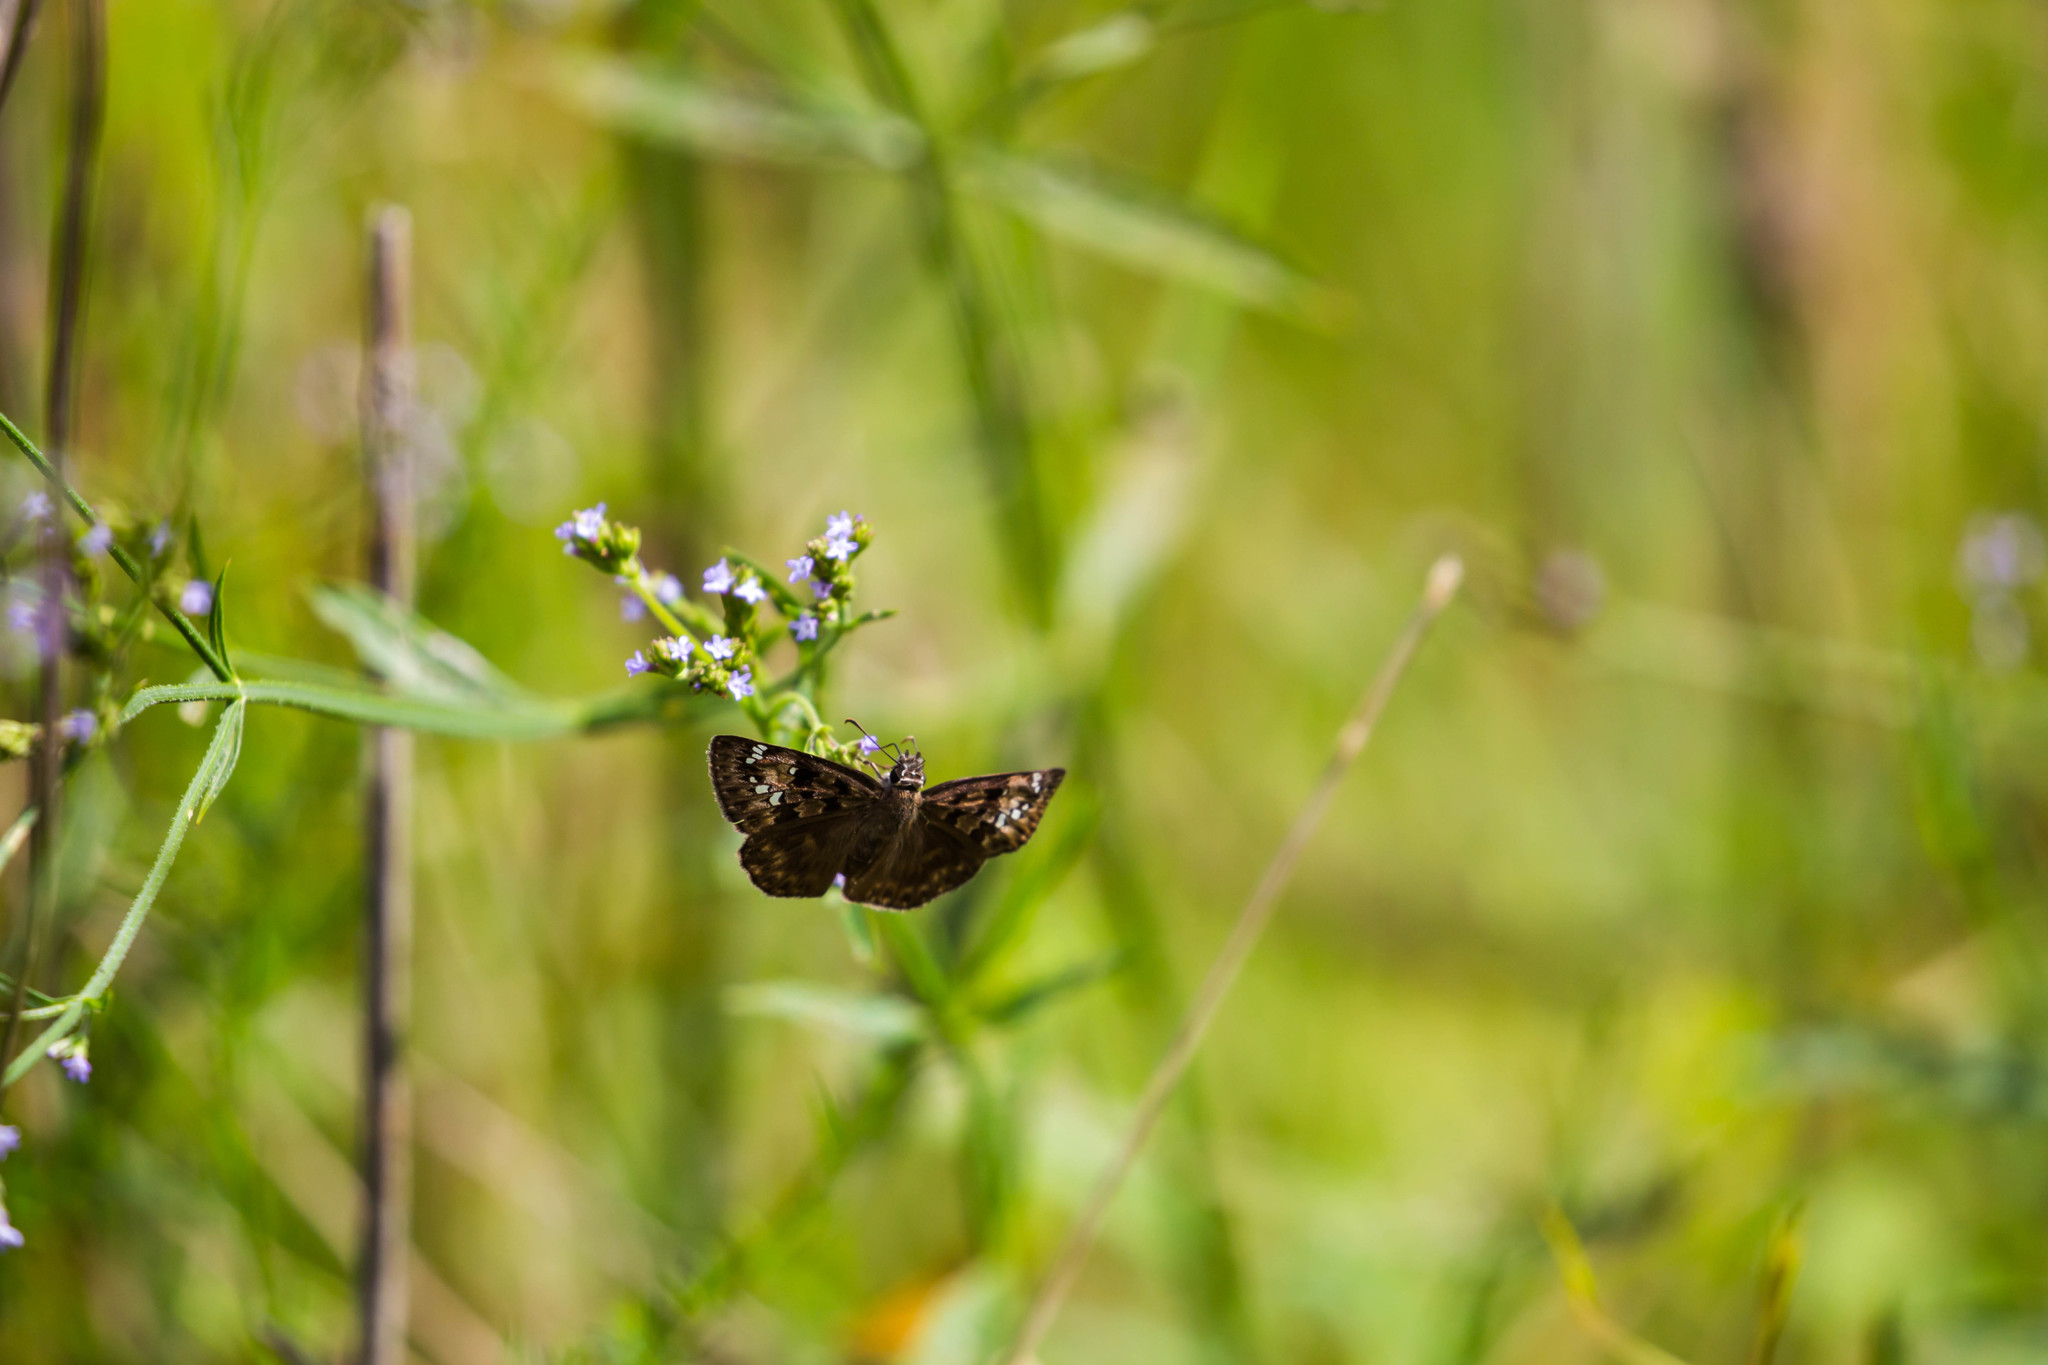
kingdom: Animalia
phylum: Arthropoda
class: Insecta
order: Lepidoptera
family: Hesperiidae
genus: Erynnis
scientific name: Erynnis horatius
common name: Horace's duskywing
